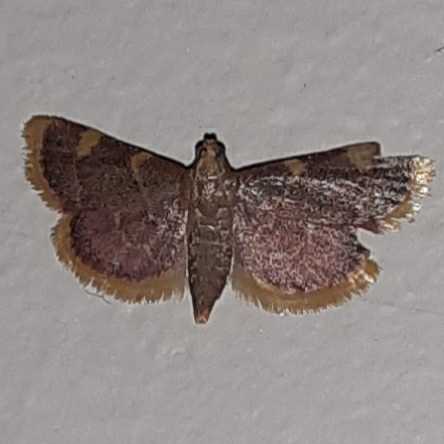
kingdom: Animalia
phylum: Arthropoda
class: Insecta
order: Lepidoptera
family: Pyralidae
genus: Hypsopygia
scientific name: Hypsopygia costalis
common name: Gold triangle
